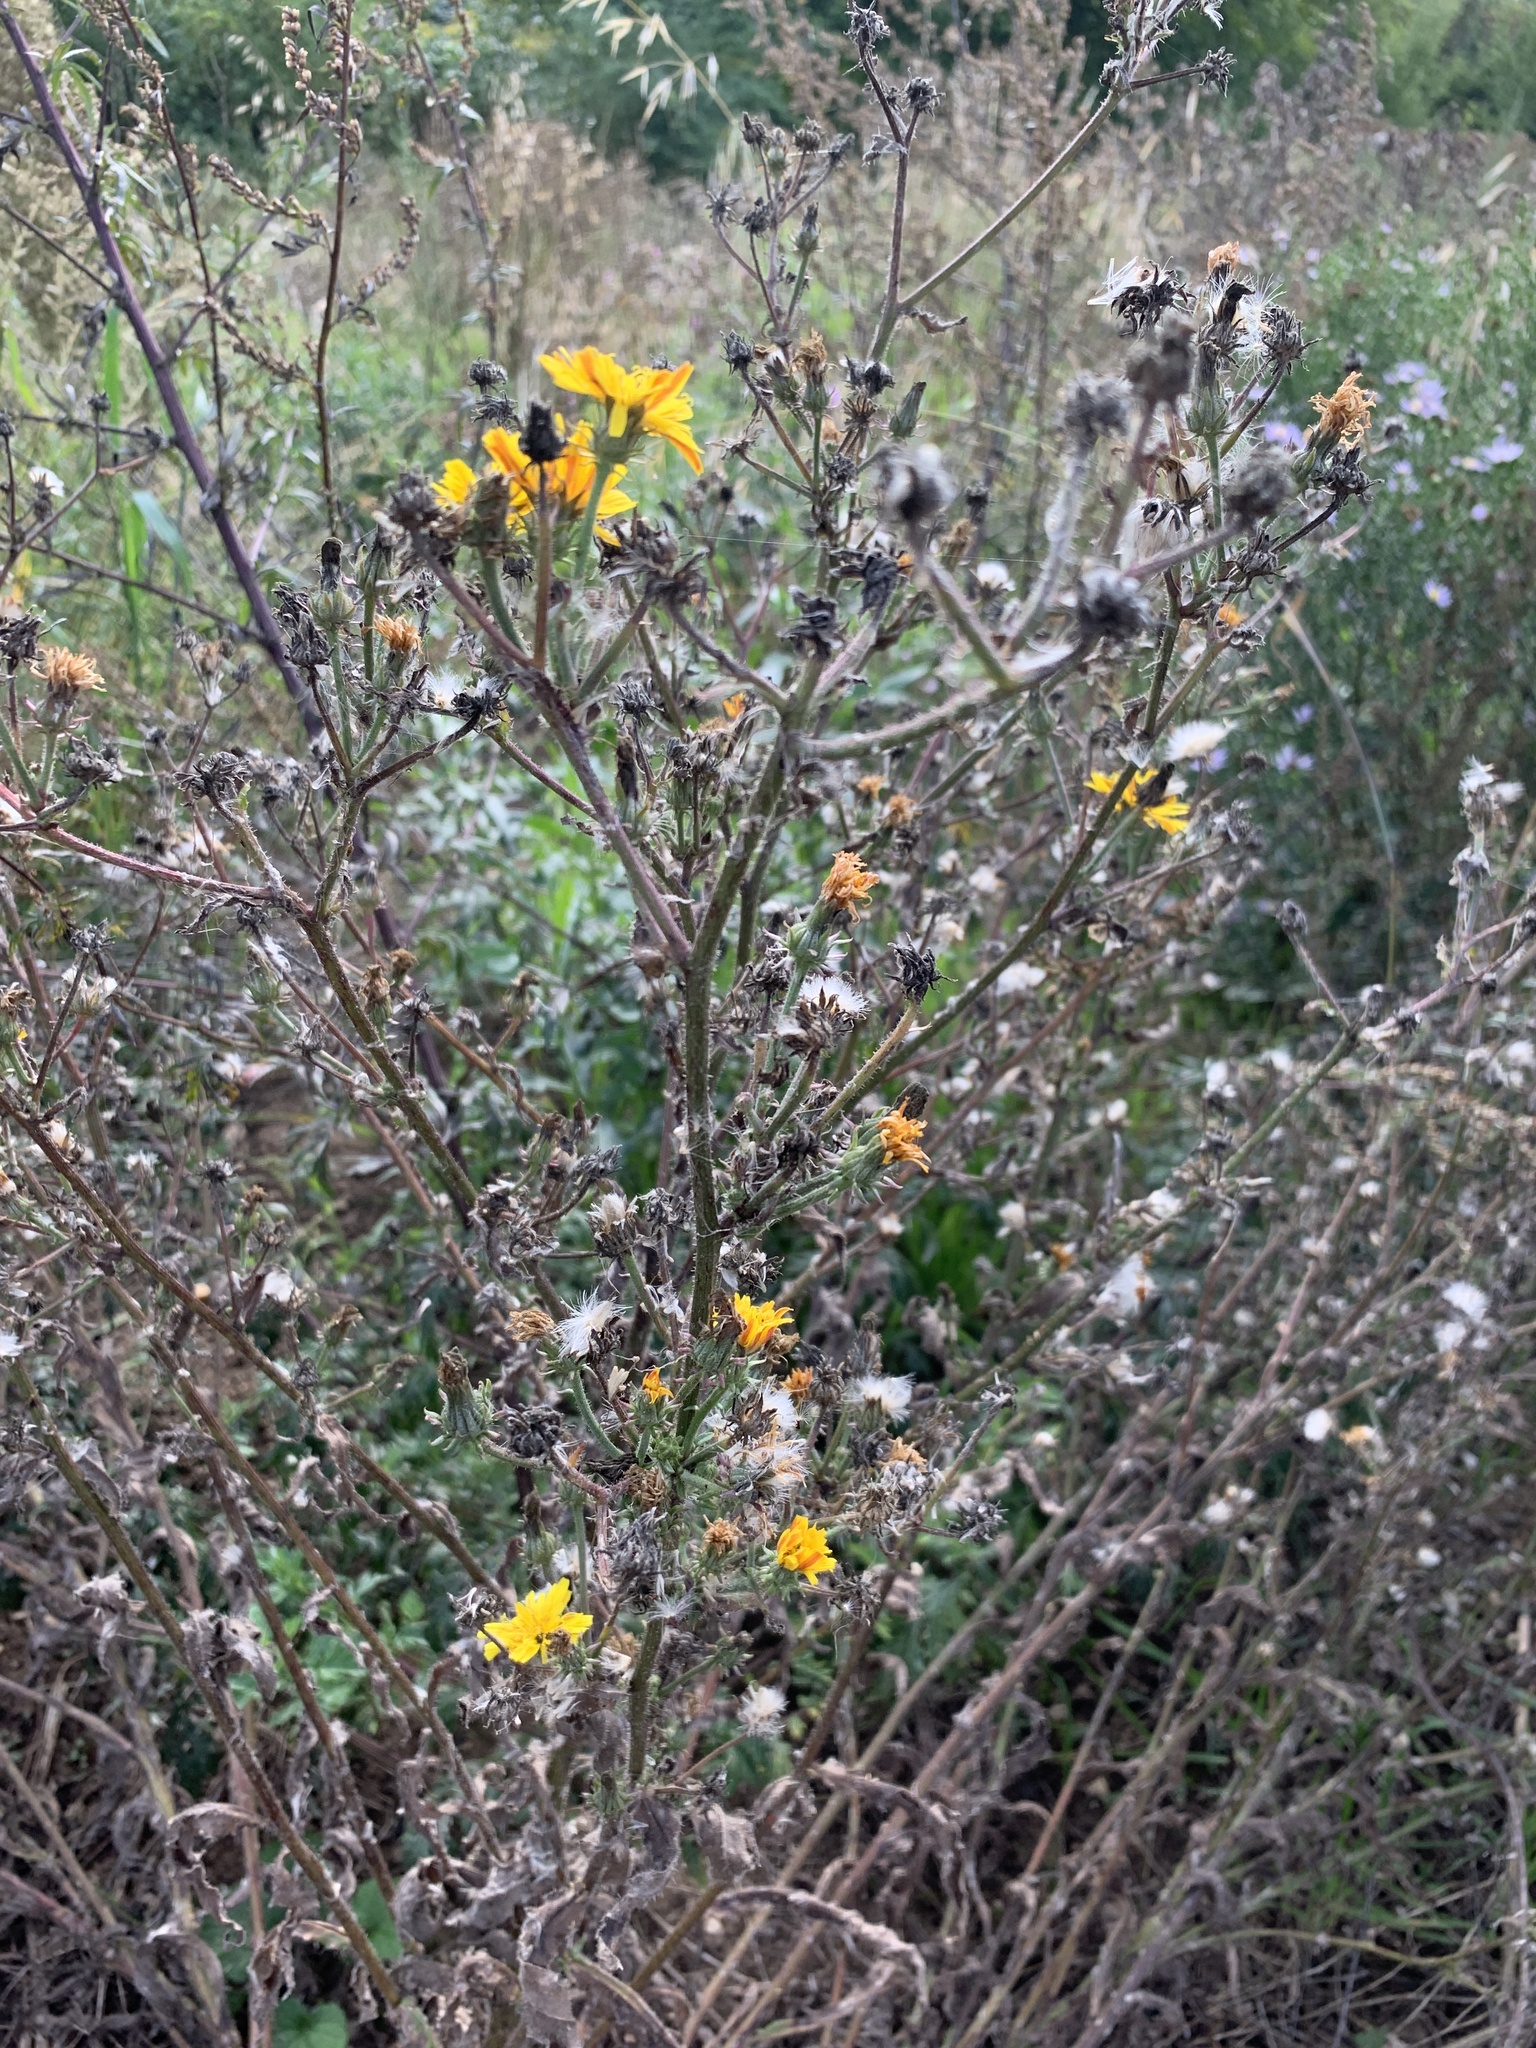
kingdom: Plantae
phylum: Tracheophyta
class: Magnoliopsida
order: Asterales
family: Asteraceae
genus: Picris
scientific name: Picris hieracioides
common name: Hawkweed oxtongue
